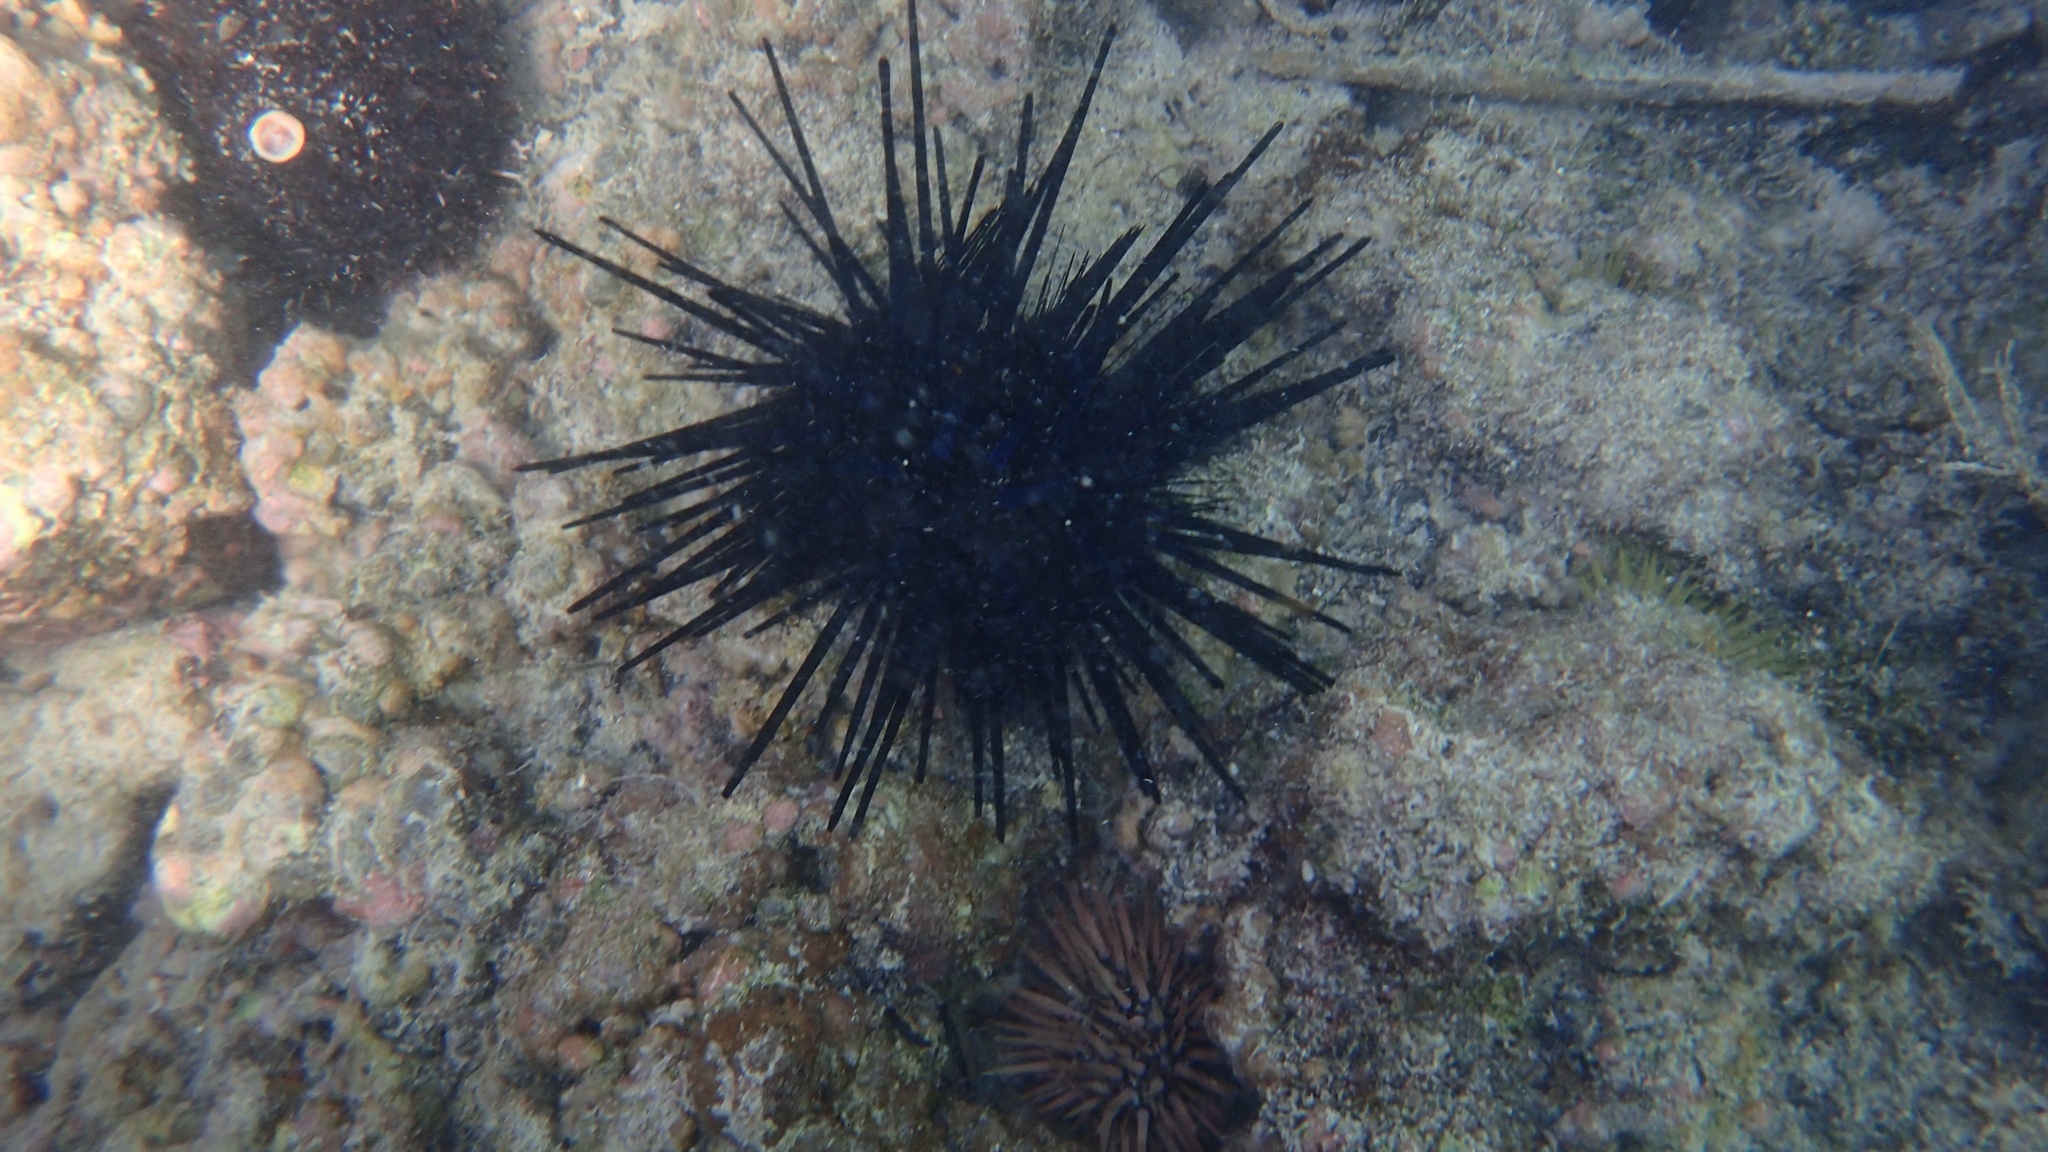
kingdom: Animalia
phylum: Echinodermata
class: Echinoidea
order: Diadematoida
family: Diadematidae
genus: Echinothrix
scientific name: Echinothrix diadema
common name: Schwarzer diademseeigel
